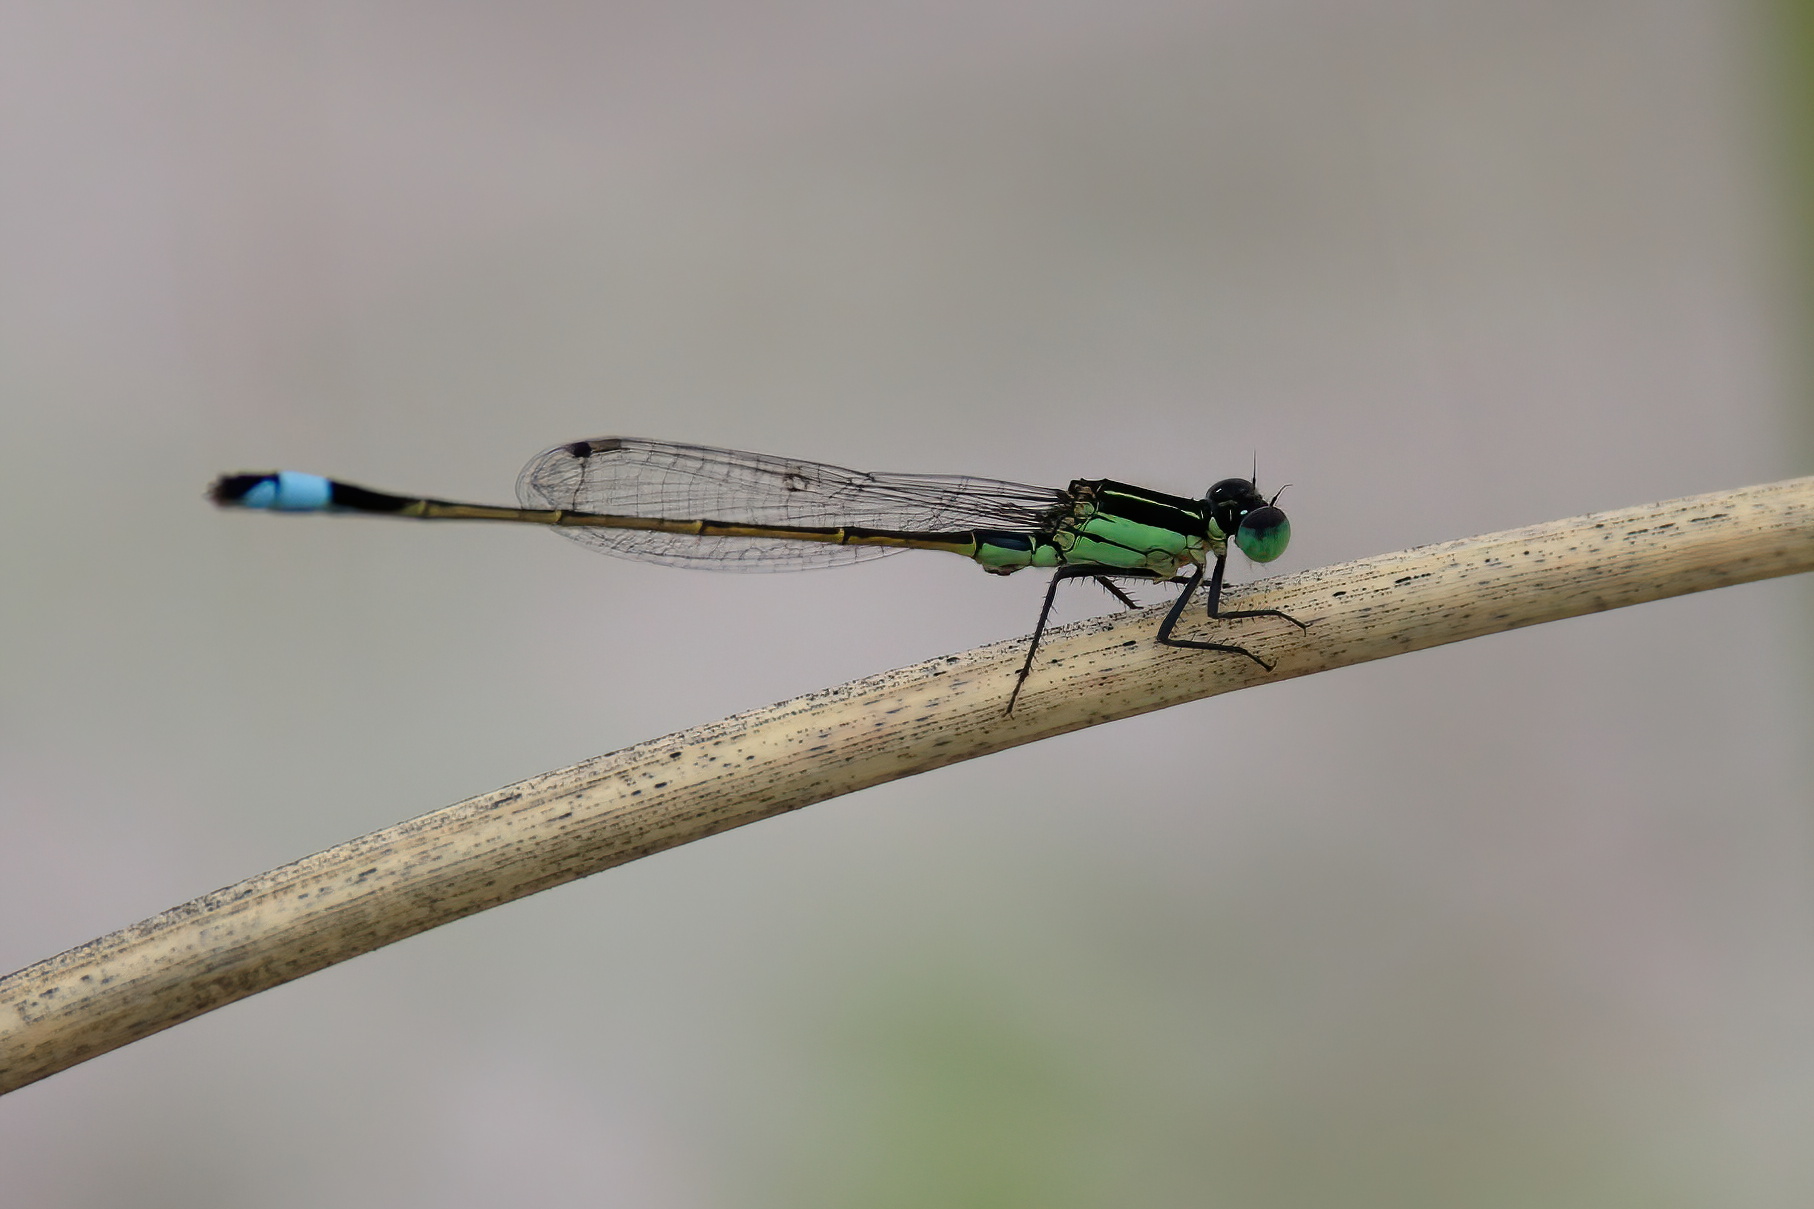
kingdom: Animalia
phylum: Arthropoda
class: Insecta
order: Odonata
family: Coenagrionidae
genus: Ischnura
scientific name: Ischnura ramburii
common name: Rambur's forktail
